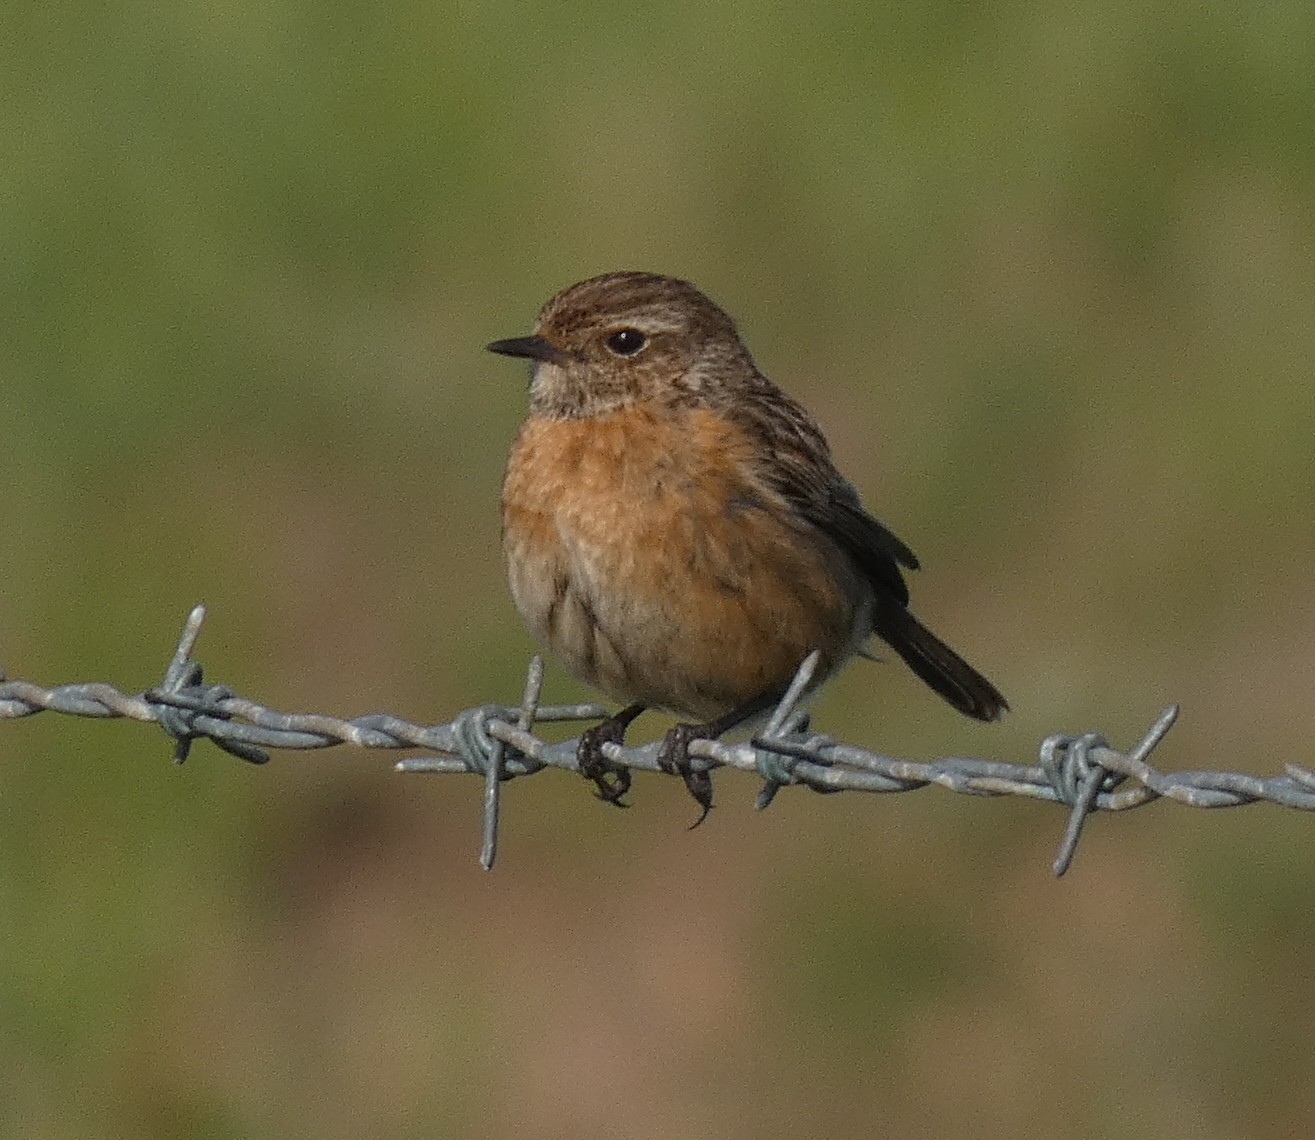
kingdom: Animalia
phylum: Chordata
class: Aves
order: Passeriformes
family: Muscicapidae
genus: Saxicola
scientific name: Saxicola rubicola
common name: European stonechat
